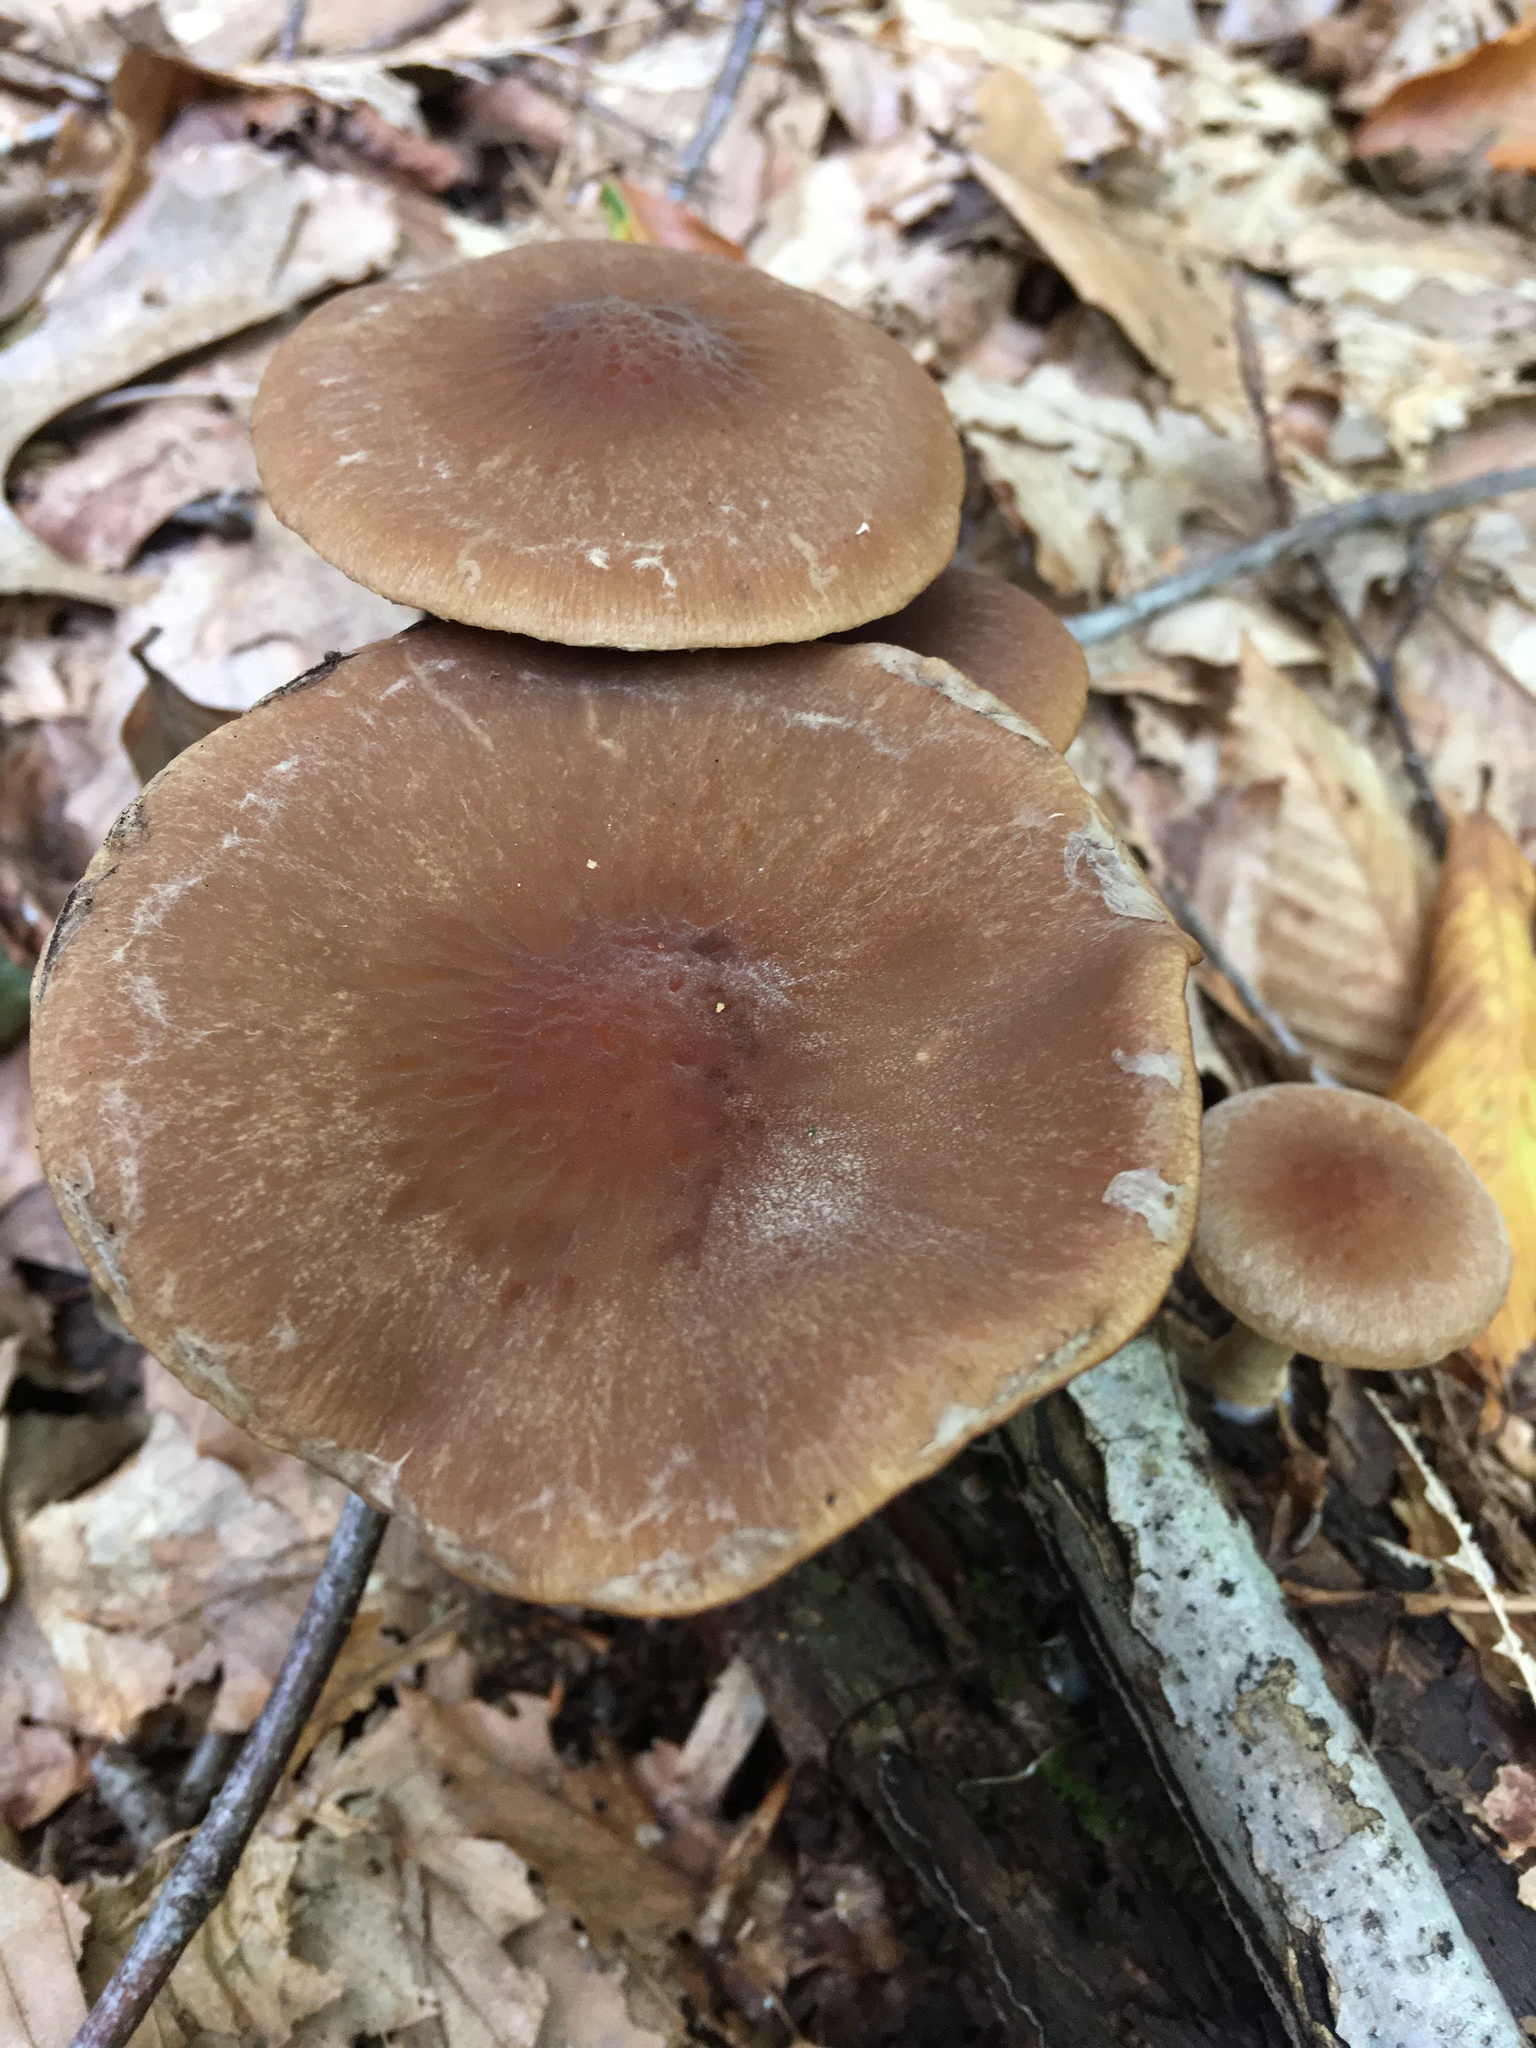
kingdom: Fungi
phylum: Basidiomycota
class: Agaricomycetes
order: Agaricales
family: Psathyrellaceae
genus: Typhrasa
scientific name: Typhrasa gossypina
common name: Wrinkled psathyrella
